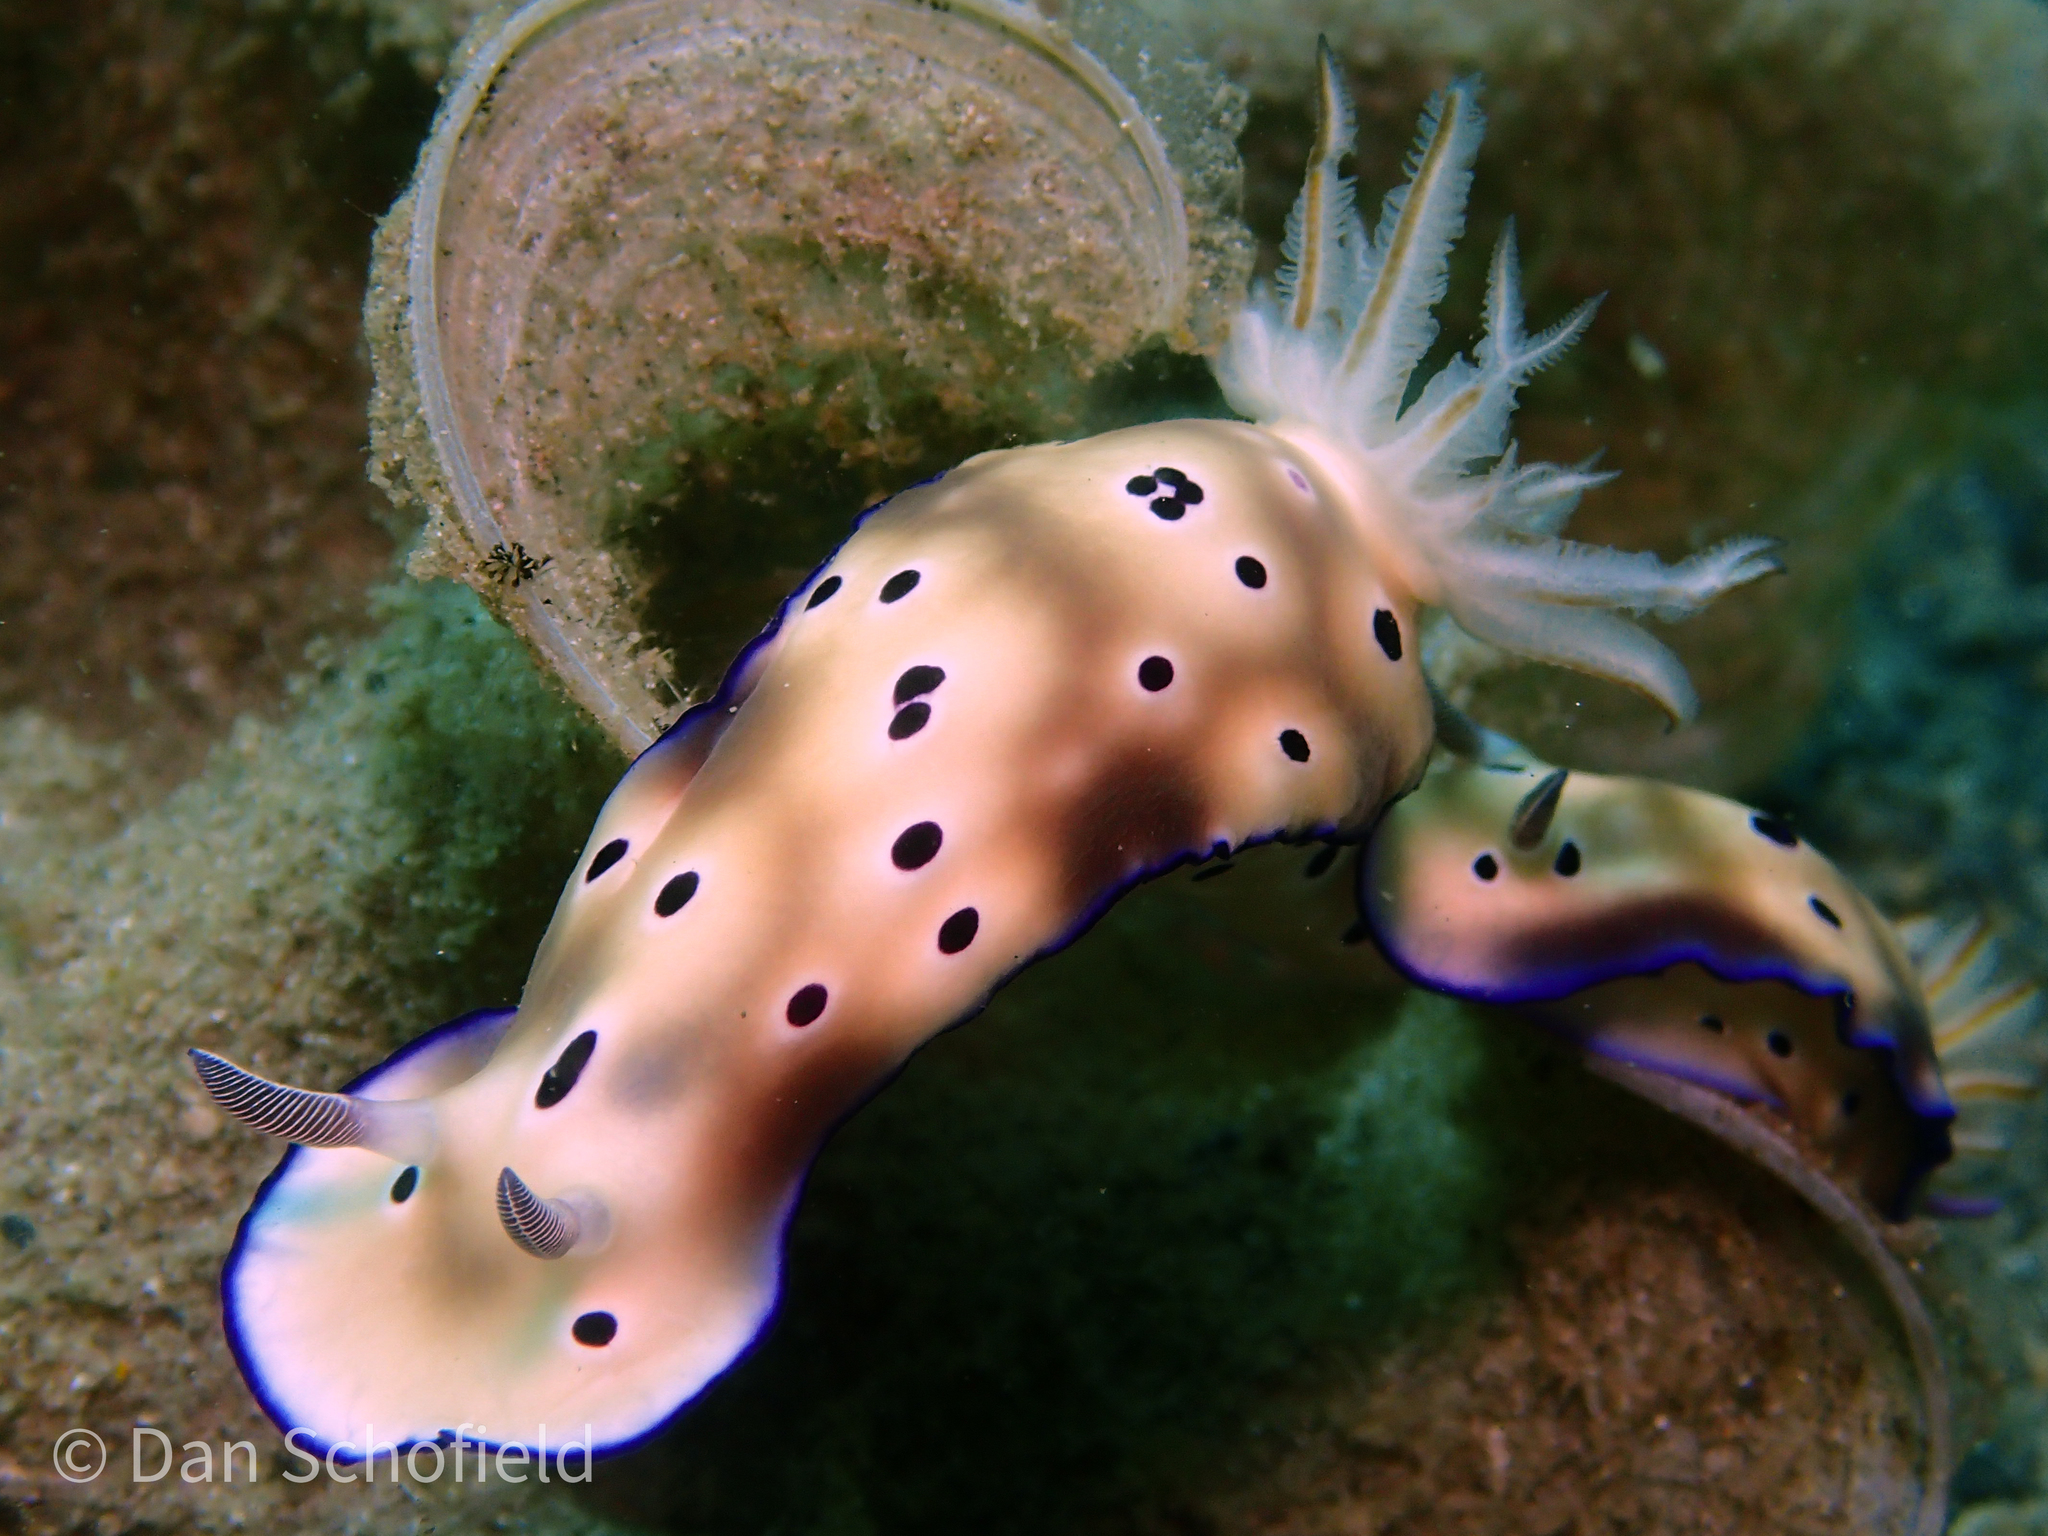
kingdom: Animalia
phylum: Mollusca
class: Gastropoda
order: Nudibranchia
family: Chromodorididae
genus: Hypselodoris
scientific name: Hypselodoris tryoni
